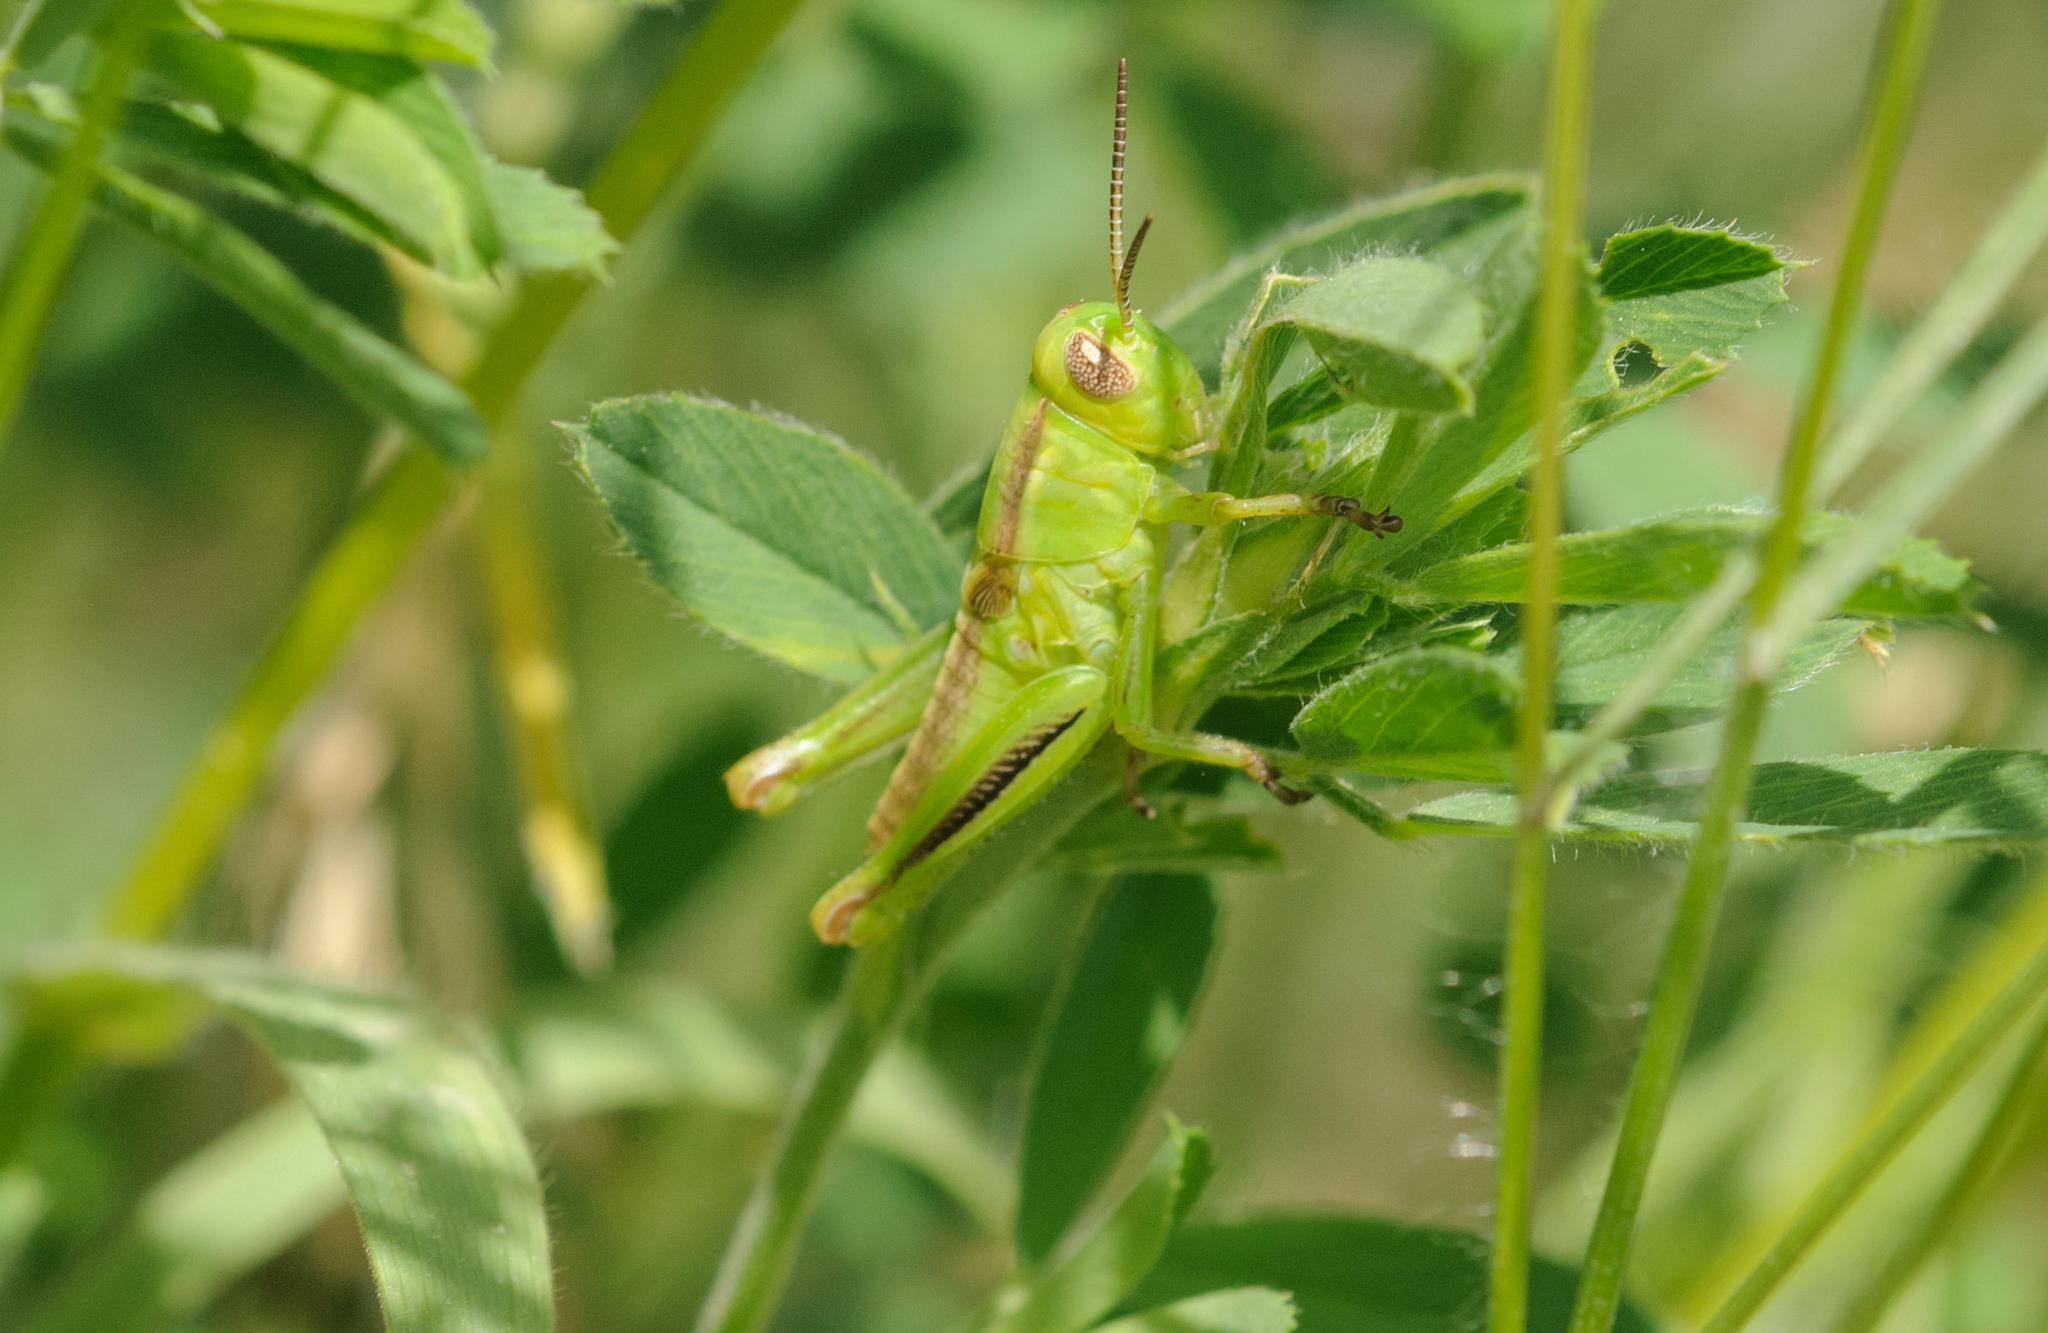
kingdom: Animalia
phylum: Arthropoda
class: Insecta
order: Orthoptera
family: Acrididae
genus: Melanoplus
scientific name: Melanoplus bivittatus
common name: Two-striped grasshopper
